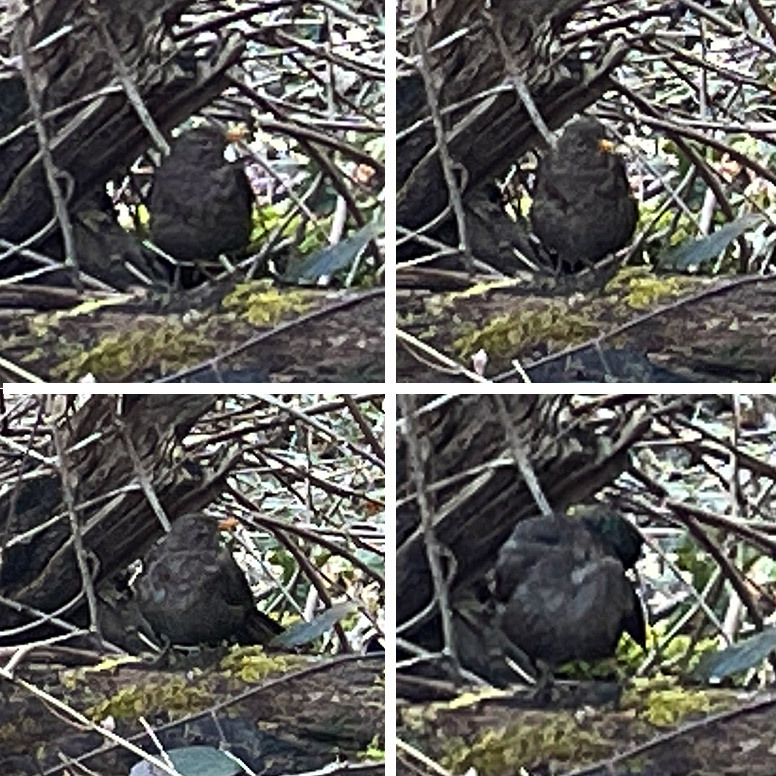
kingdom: Animalia
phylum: Chordata
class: Aves
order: Passeriformes
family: Turdidae
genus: Turdus
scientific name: Turdus merula
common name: Common blackbird
